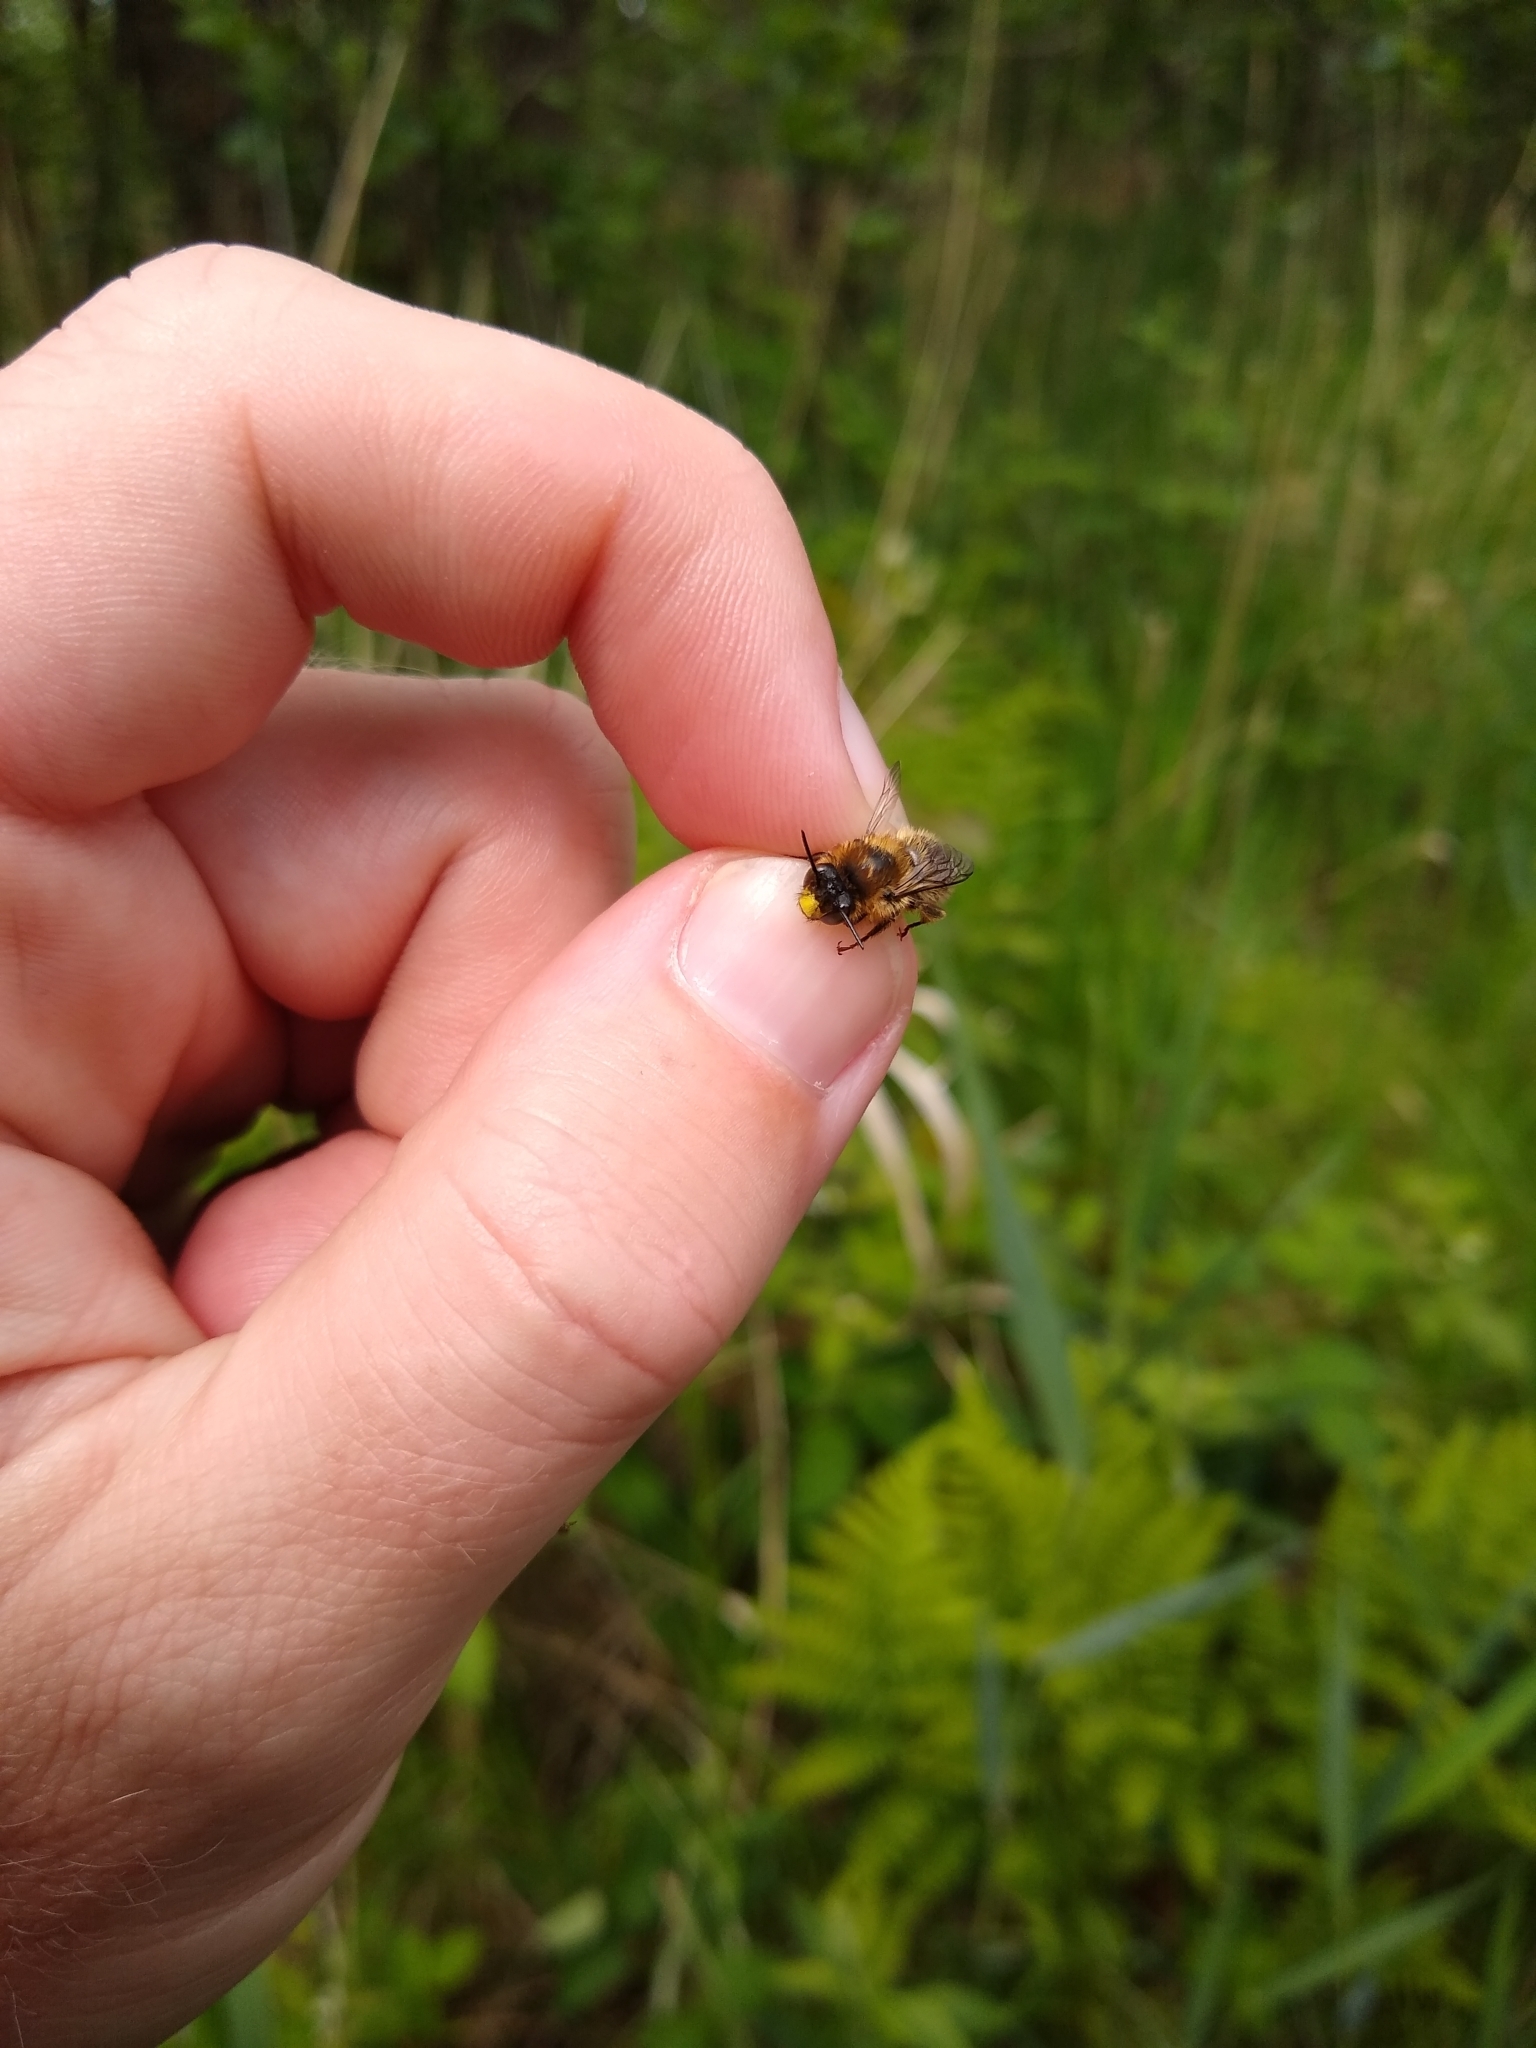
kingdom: Animalia
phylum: Arthropoda
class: Insecta
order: Hymenoptera
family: Apidae
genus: Anthophora
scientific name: Anthophora furcata
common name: Fork-tailed flower bee
